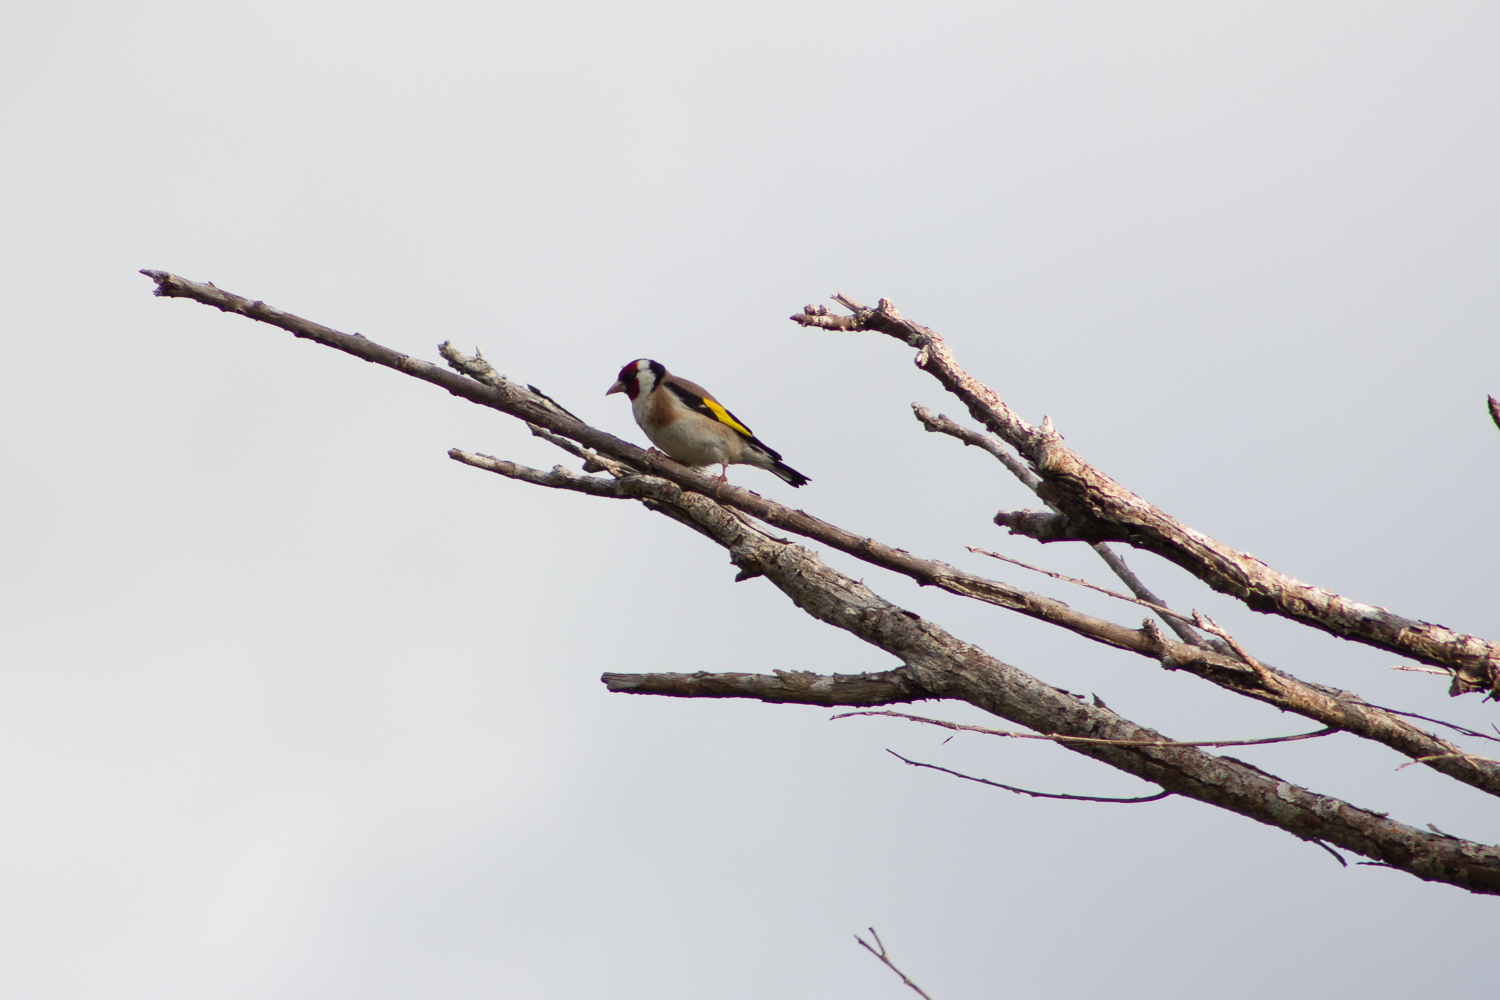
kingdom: Animalia
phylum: Chordata
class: Aves
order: Passeriformes
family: Fringillidae
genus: Carduelis
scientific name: Carduelis carduelis
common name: European goldfinch
